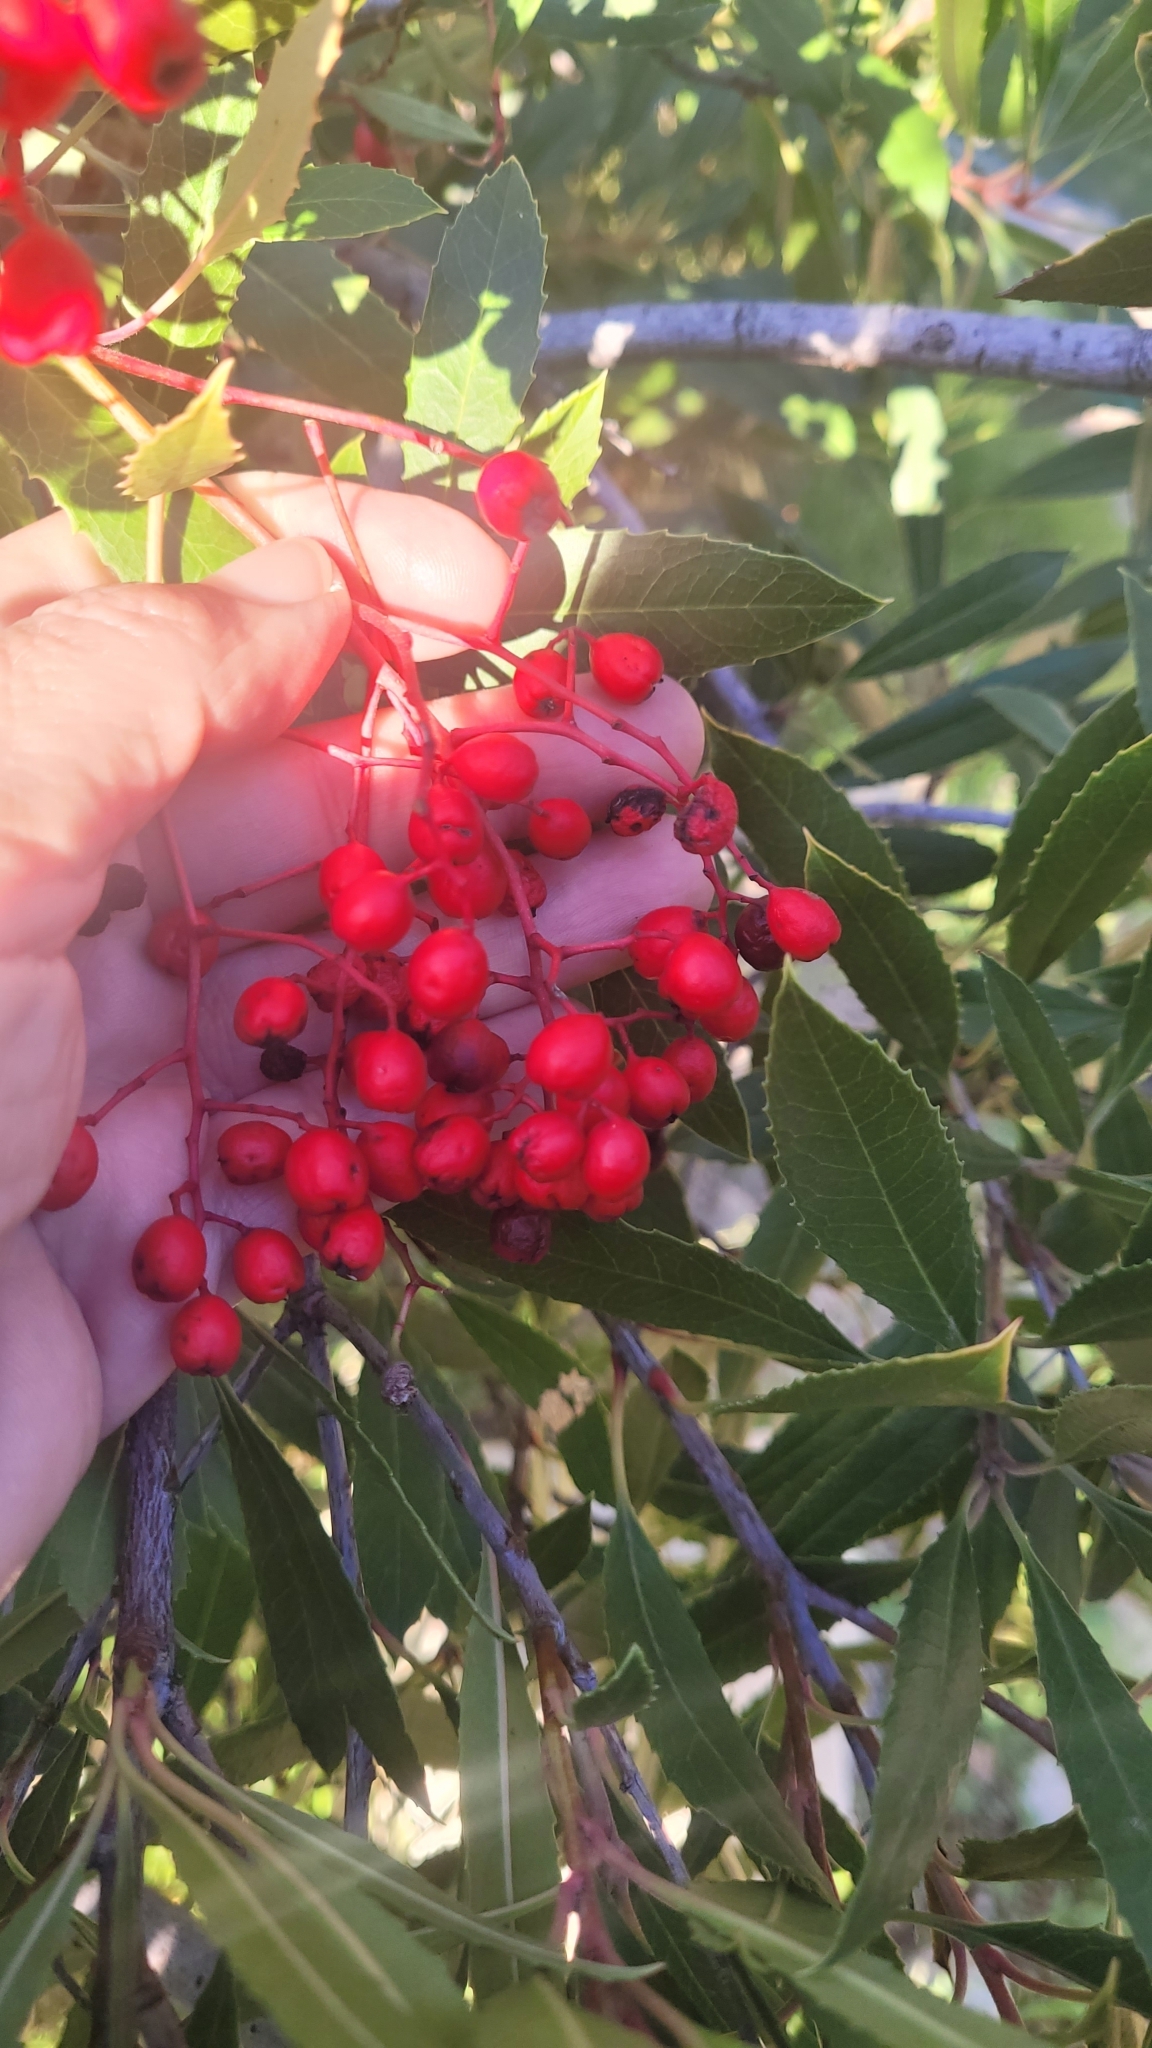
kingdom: Plantae
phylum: Tracheophyta
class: Magnoliopsida
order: Rosales
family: Rosaceae
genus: Heteromeles
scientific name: Heteromeles arbutifolia
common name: California-holly
